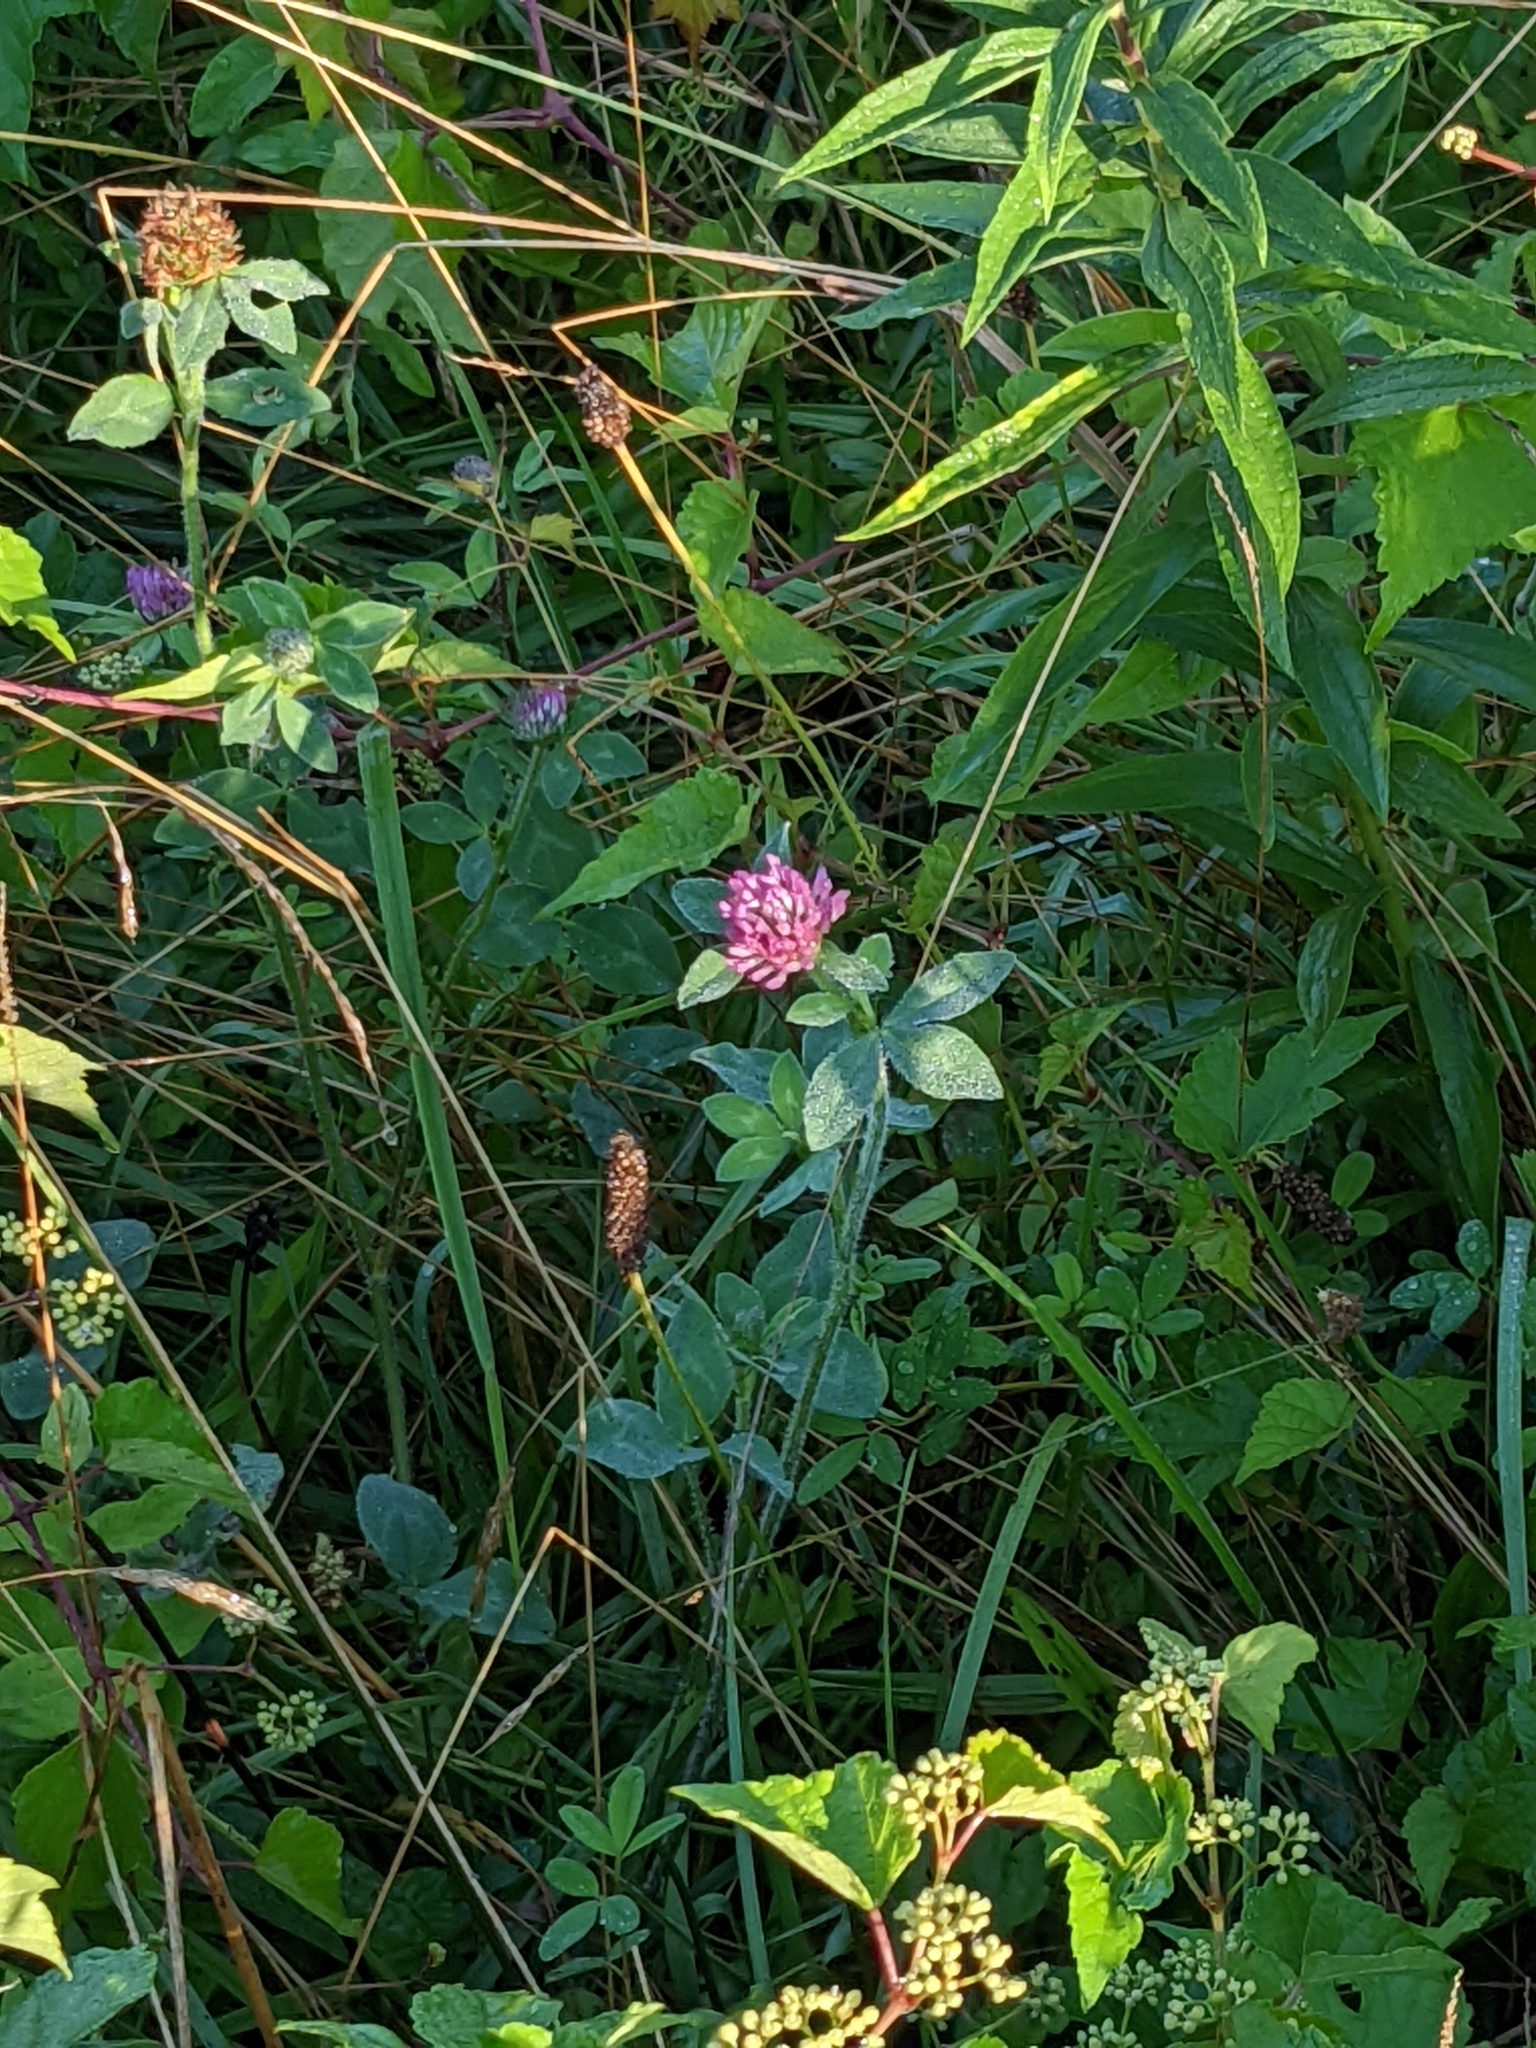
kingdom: Plantae
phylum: Tracheophyta
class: Magnoliopsida
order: Fabales
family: Fabaceae
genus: Trifolium
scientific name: Trifolium pratense
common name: Red clover
